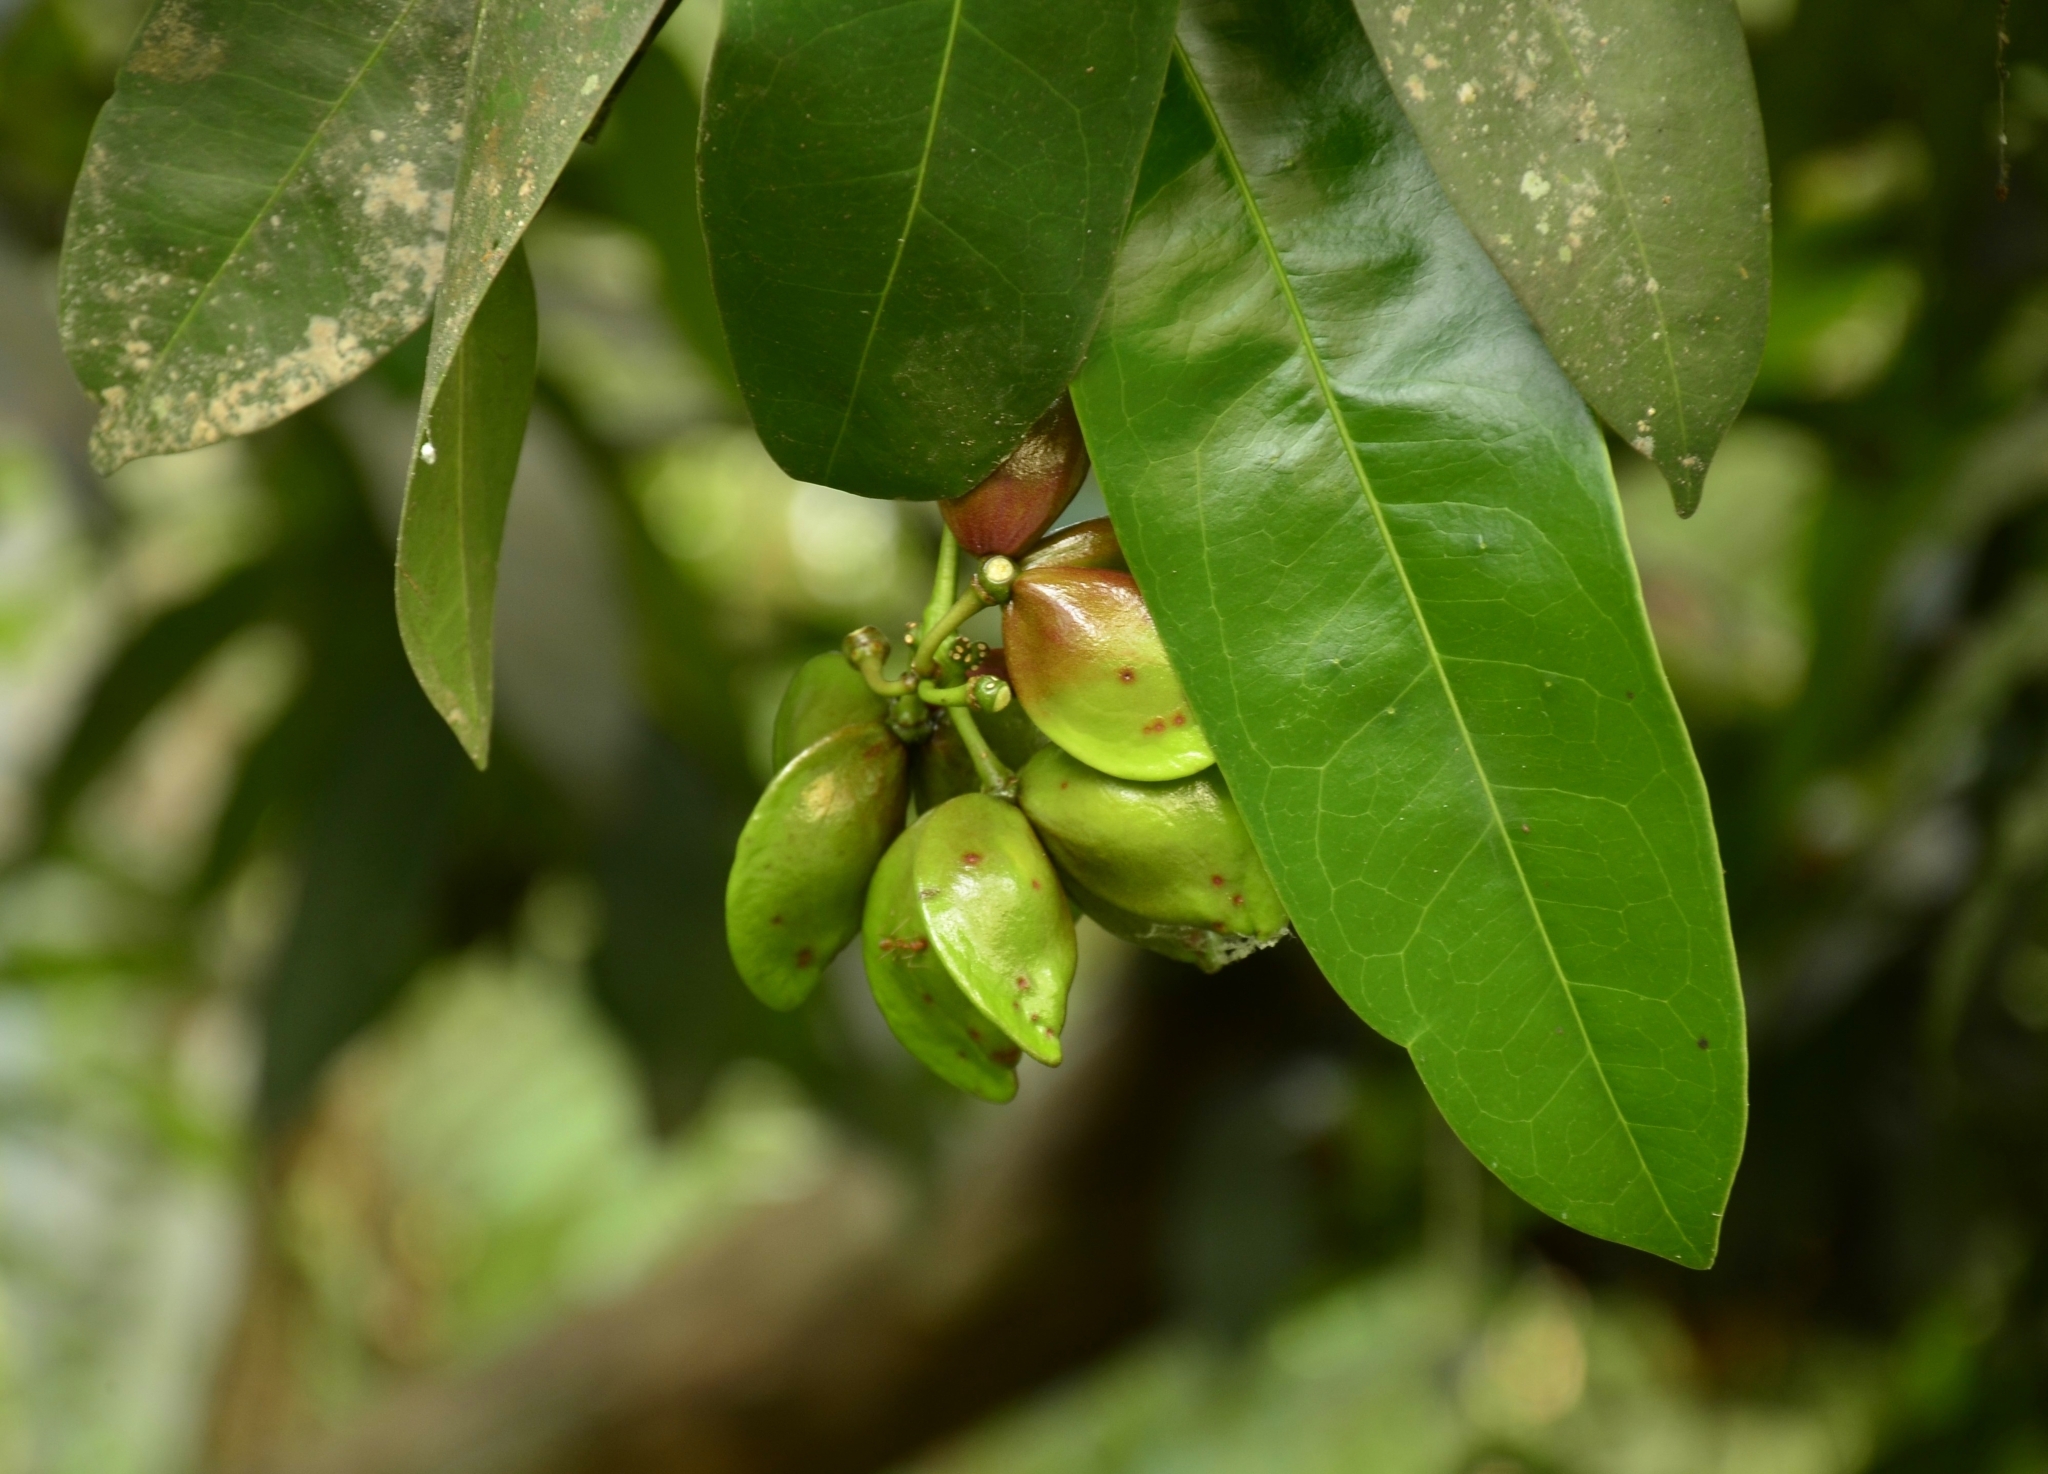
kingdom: Plantae
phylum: Tracheophyta
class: Magnoliopsida
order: Sapindales
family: Simaroubaceae
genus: Samadera
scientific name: Samadera indica
